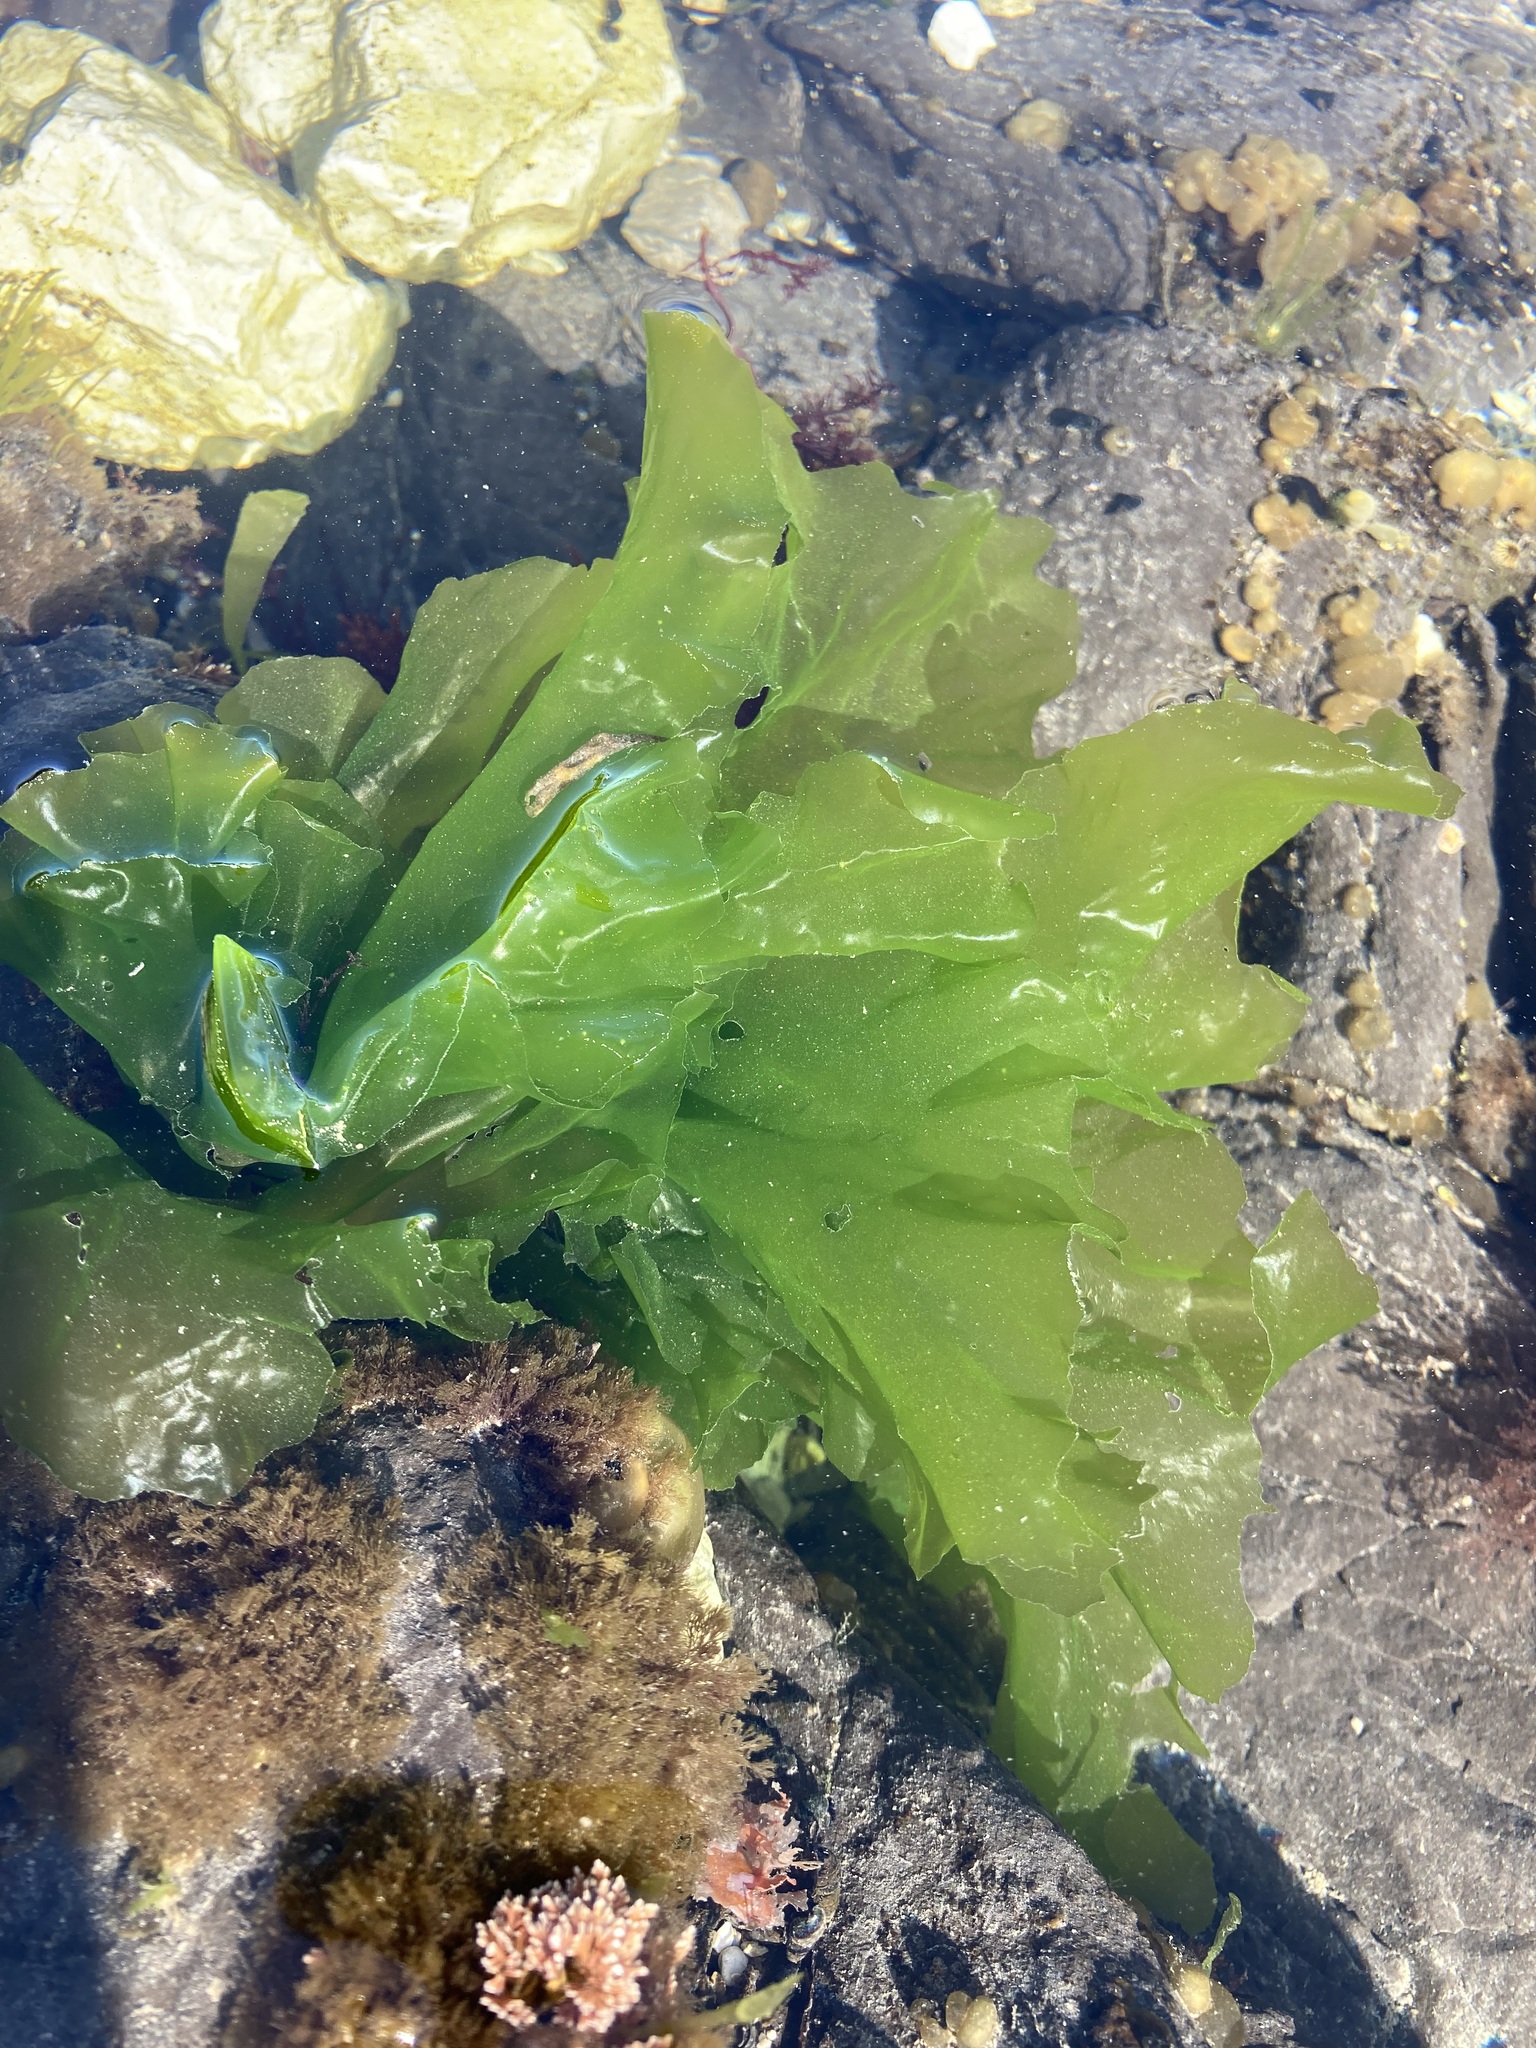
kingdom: Plantae
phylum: Chlorophyta
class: Ulvophyceae
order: Ulvales
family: Ulvaceae
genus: Ulva
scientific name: Ulva
